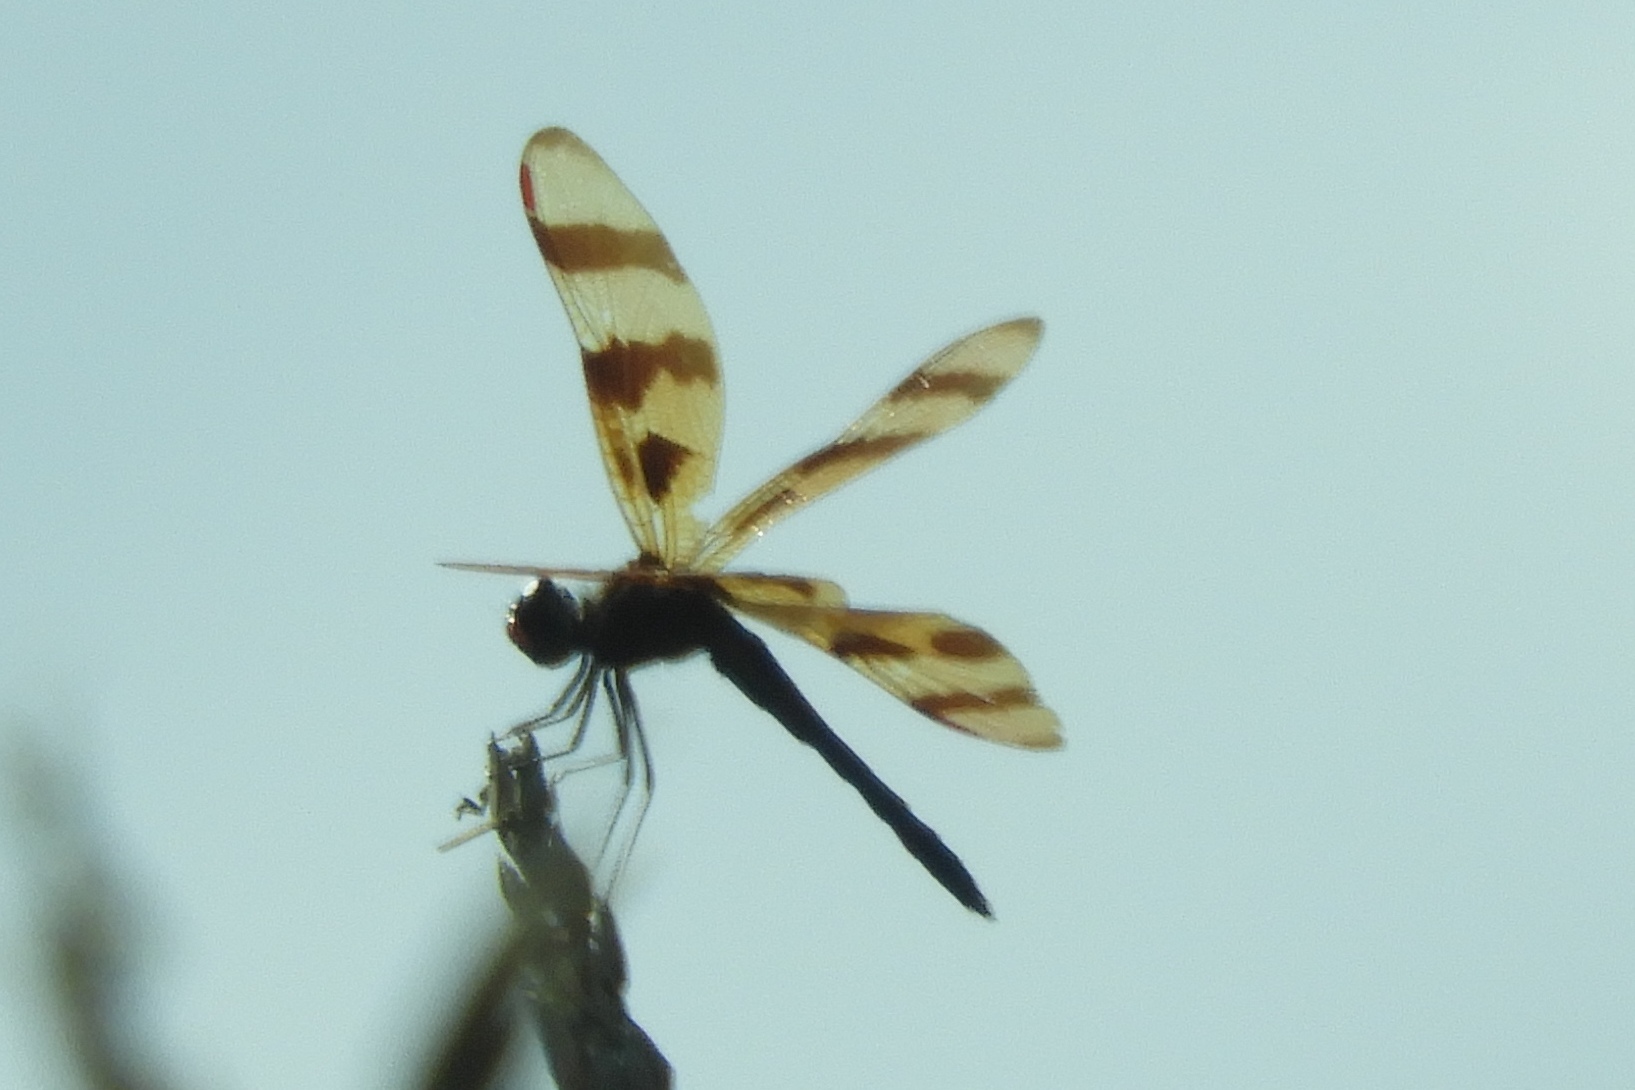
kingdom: Animalia
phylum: Arthropoda
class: Insecta
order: Odonata
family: Libellulidae
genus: Celithemis
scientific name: Celithemis eponina
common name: Halloween pennant
